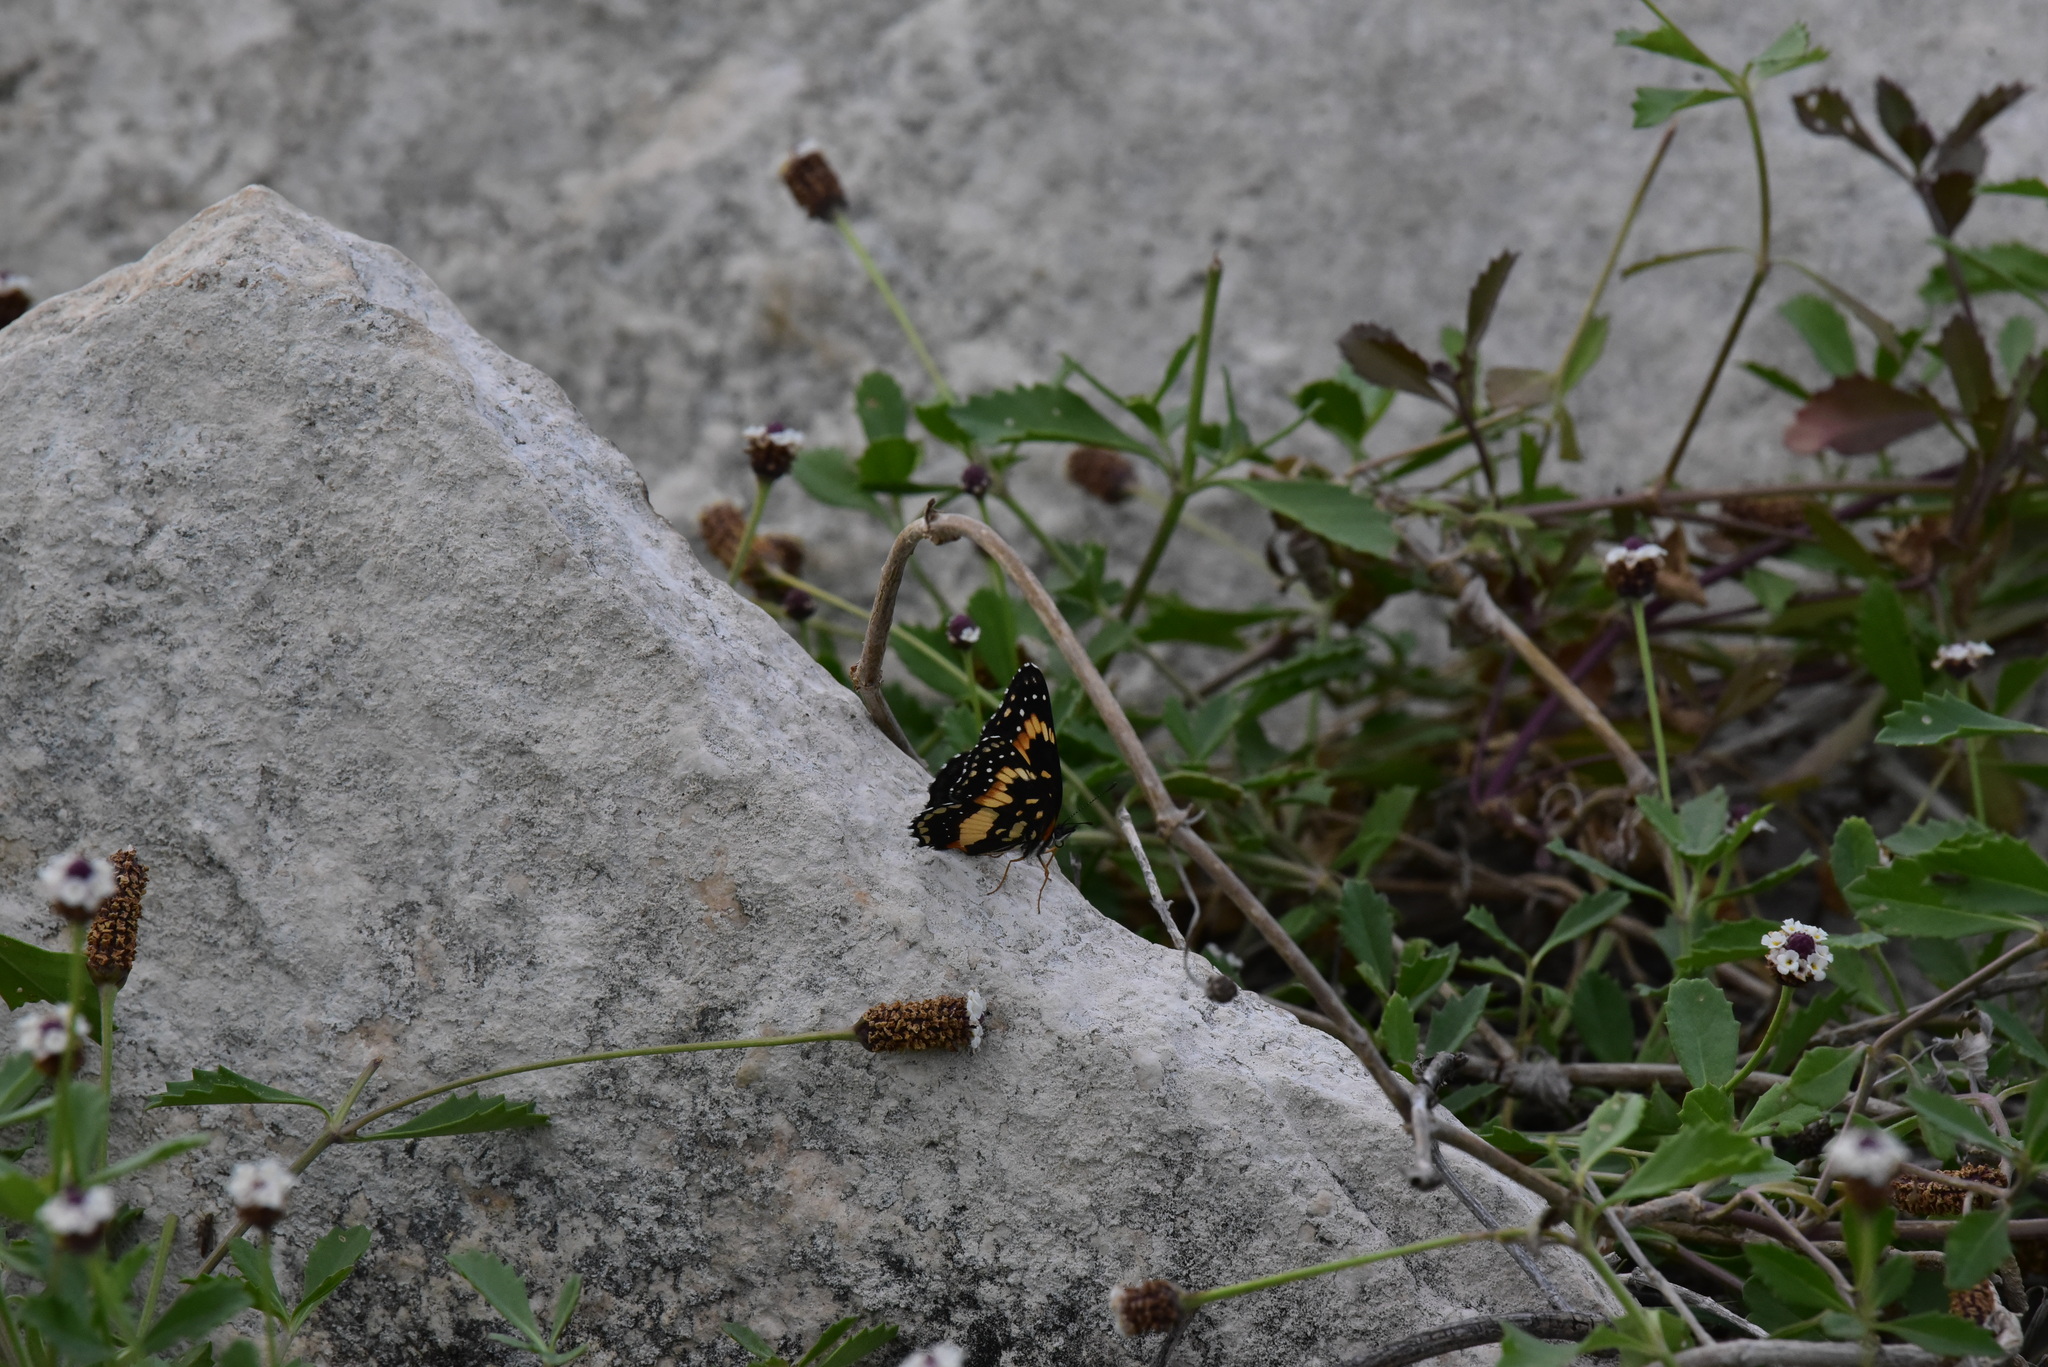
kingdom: Animalia
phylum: Arthropoda
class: Insecta
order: Lepidoptera
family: Nymphalidae
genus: Chlosyne
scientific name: Chlosyne lacinia
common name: Bordered patch
